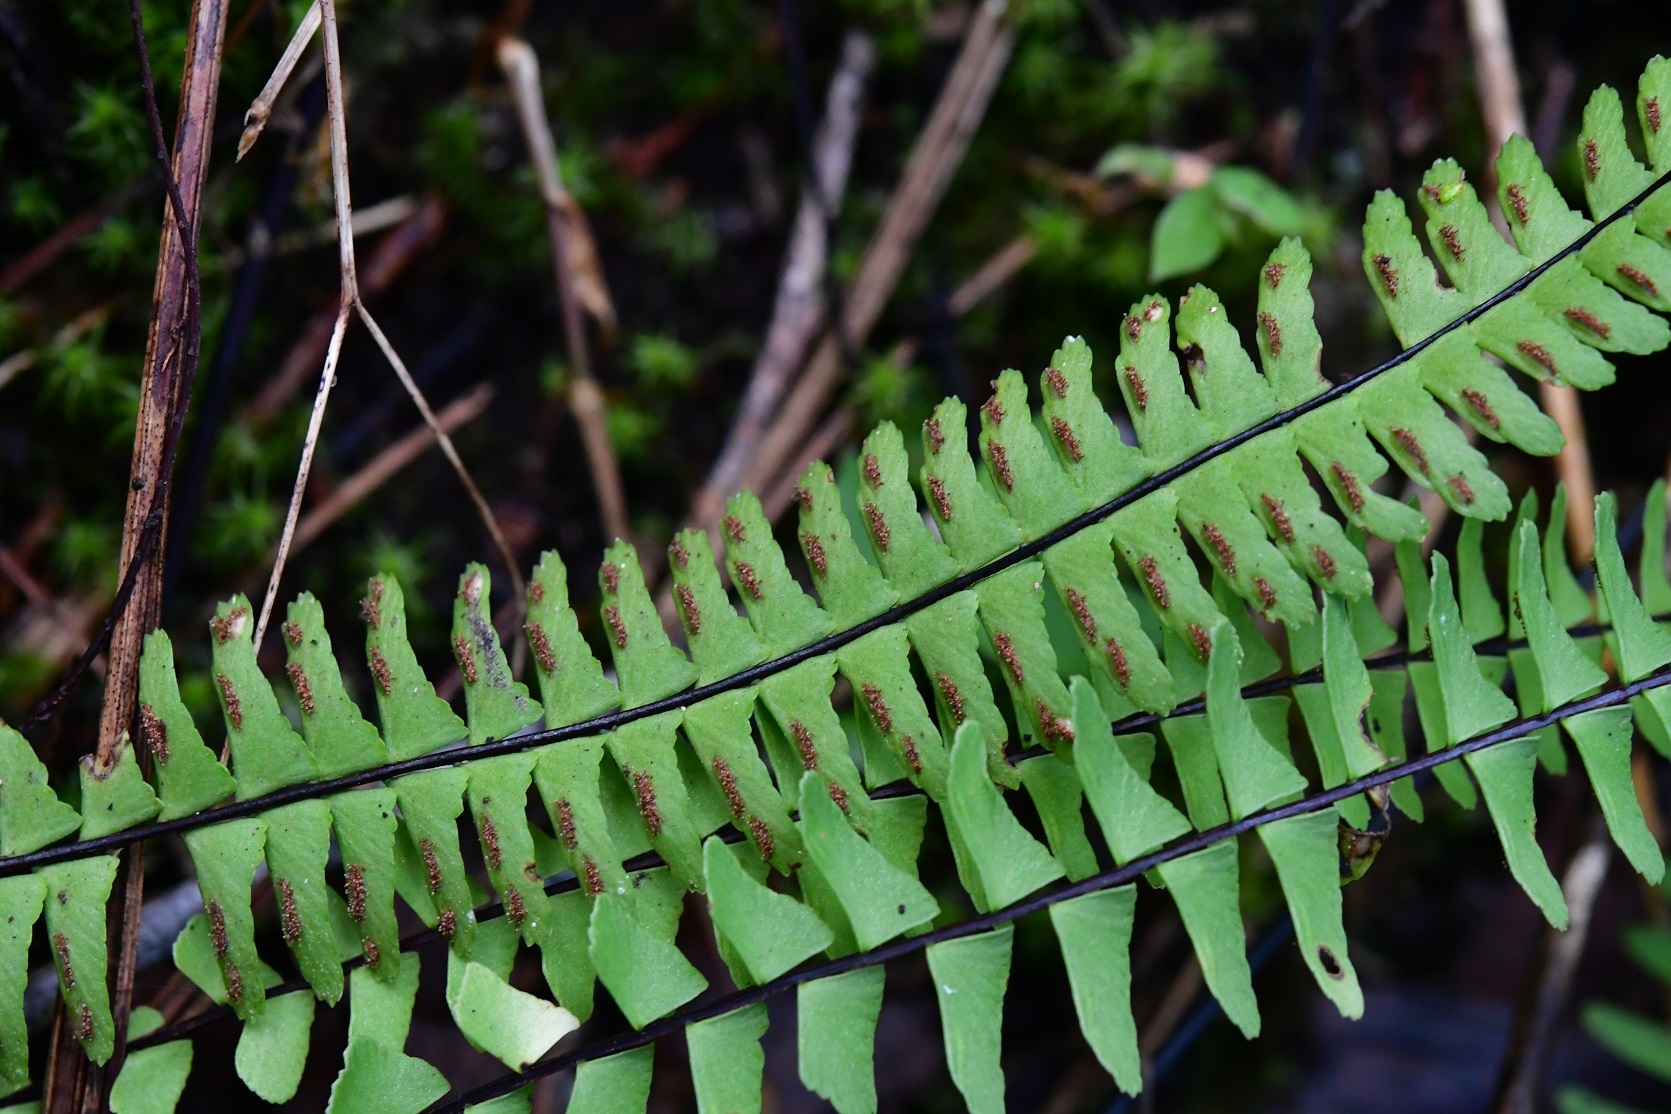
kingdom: Plantae
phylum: Tracheophyta
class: Polypodiopsida
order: Polypodiales
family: Aspleniaceae
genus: Asplenium
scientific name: Asplenium monanthes
